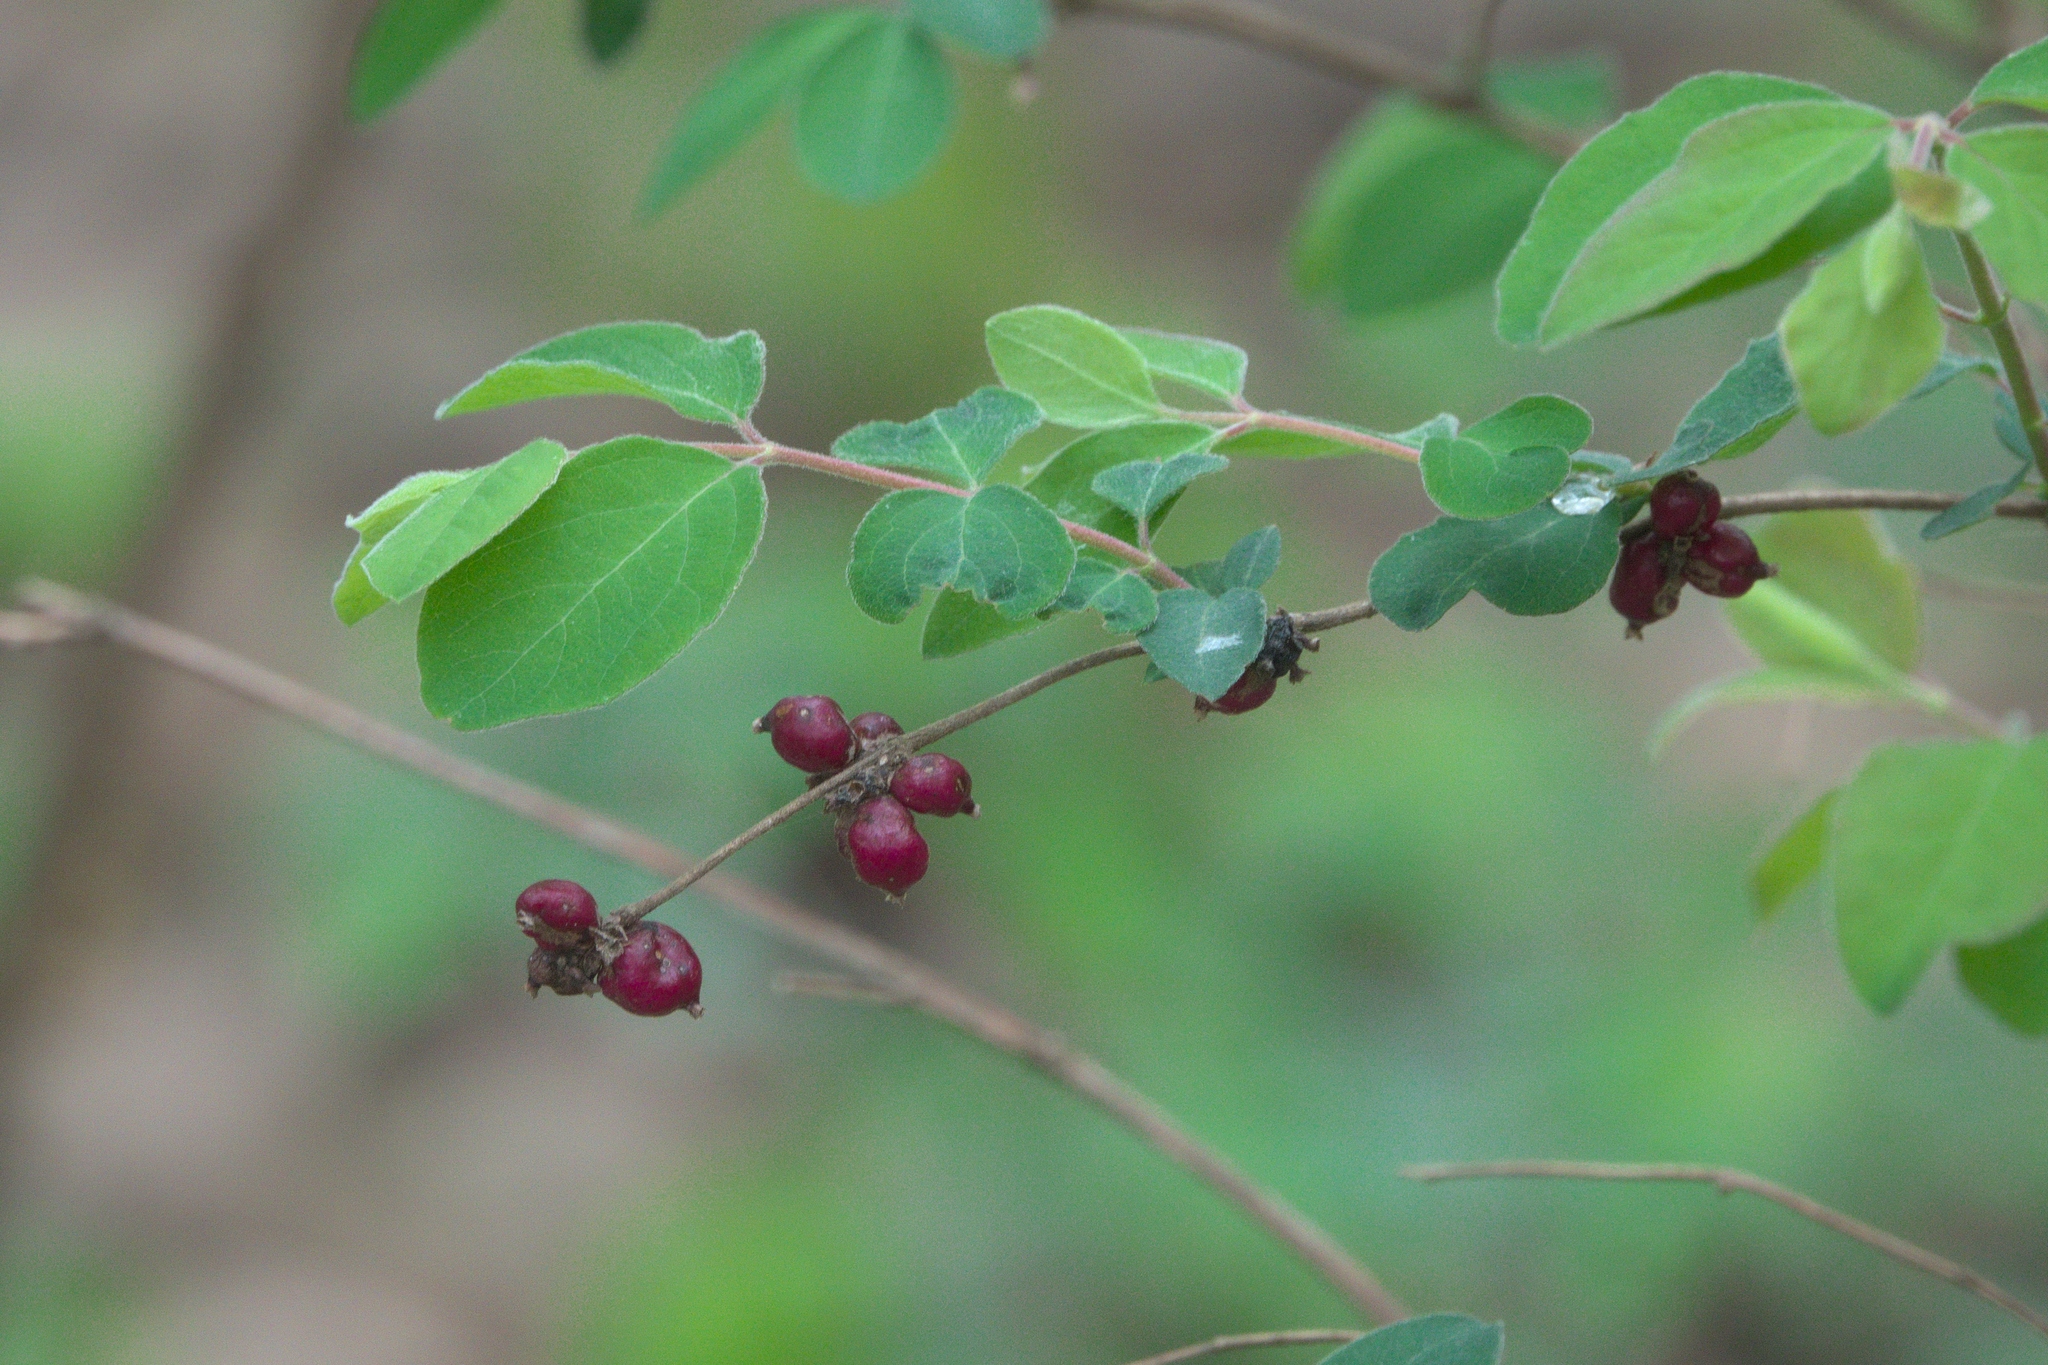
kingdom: Plantae
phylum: Tracheophyta
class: Magnoliopsida
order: Dipsacales
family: Caprifoliaceae
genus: Symphoricarpos
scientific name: Symphoricarpos orbiculatus
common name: Coralberry
